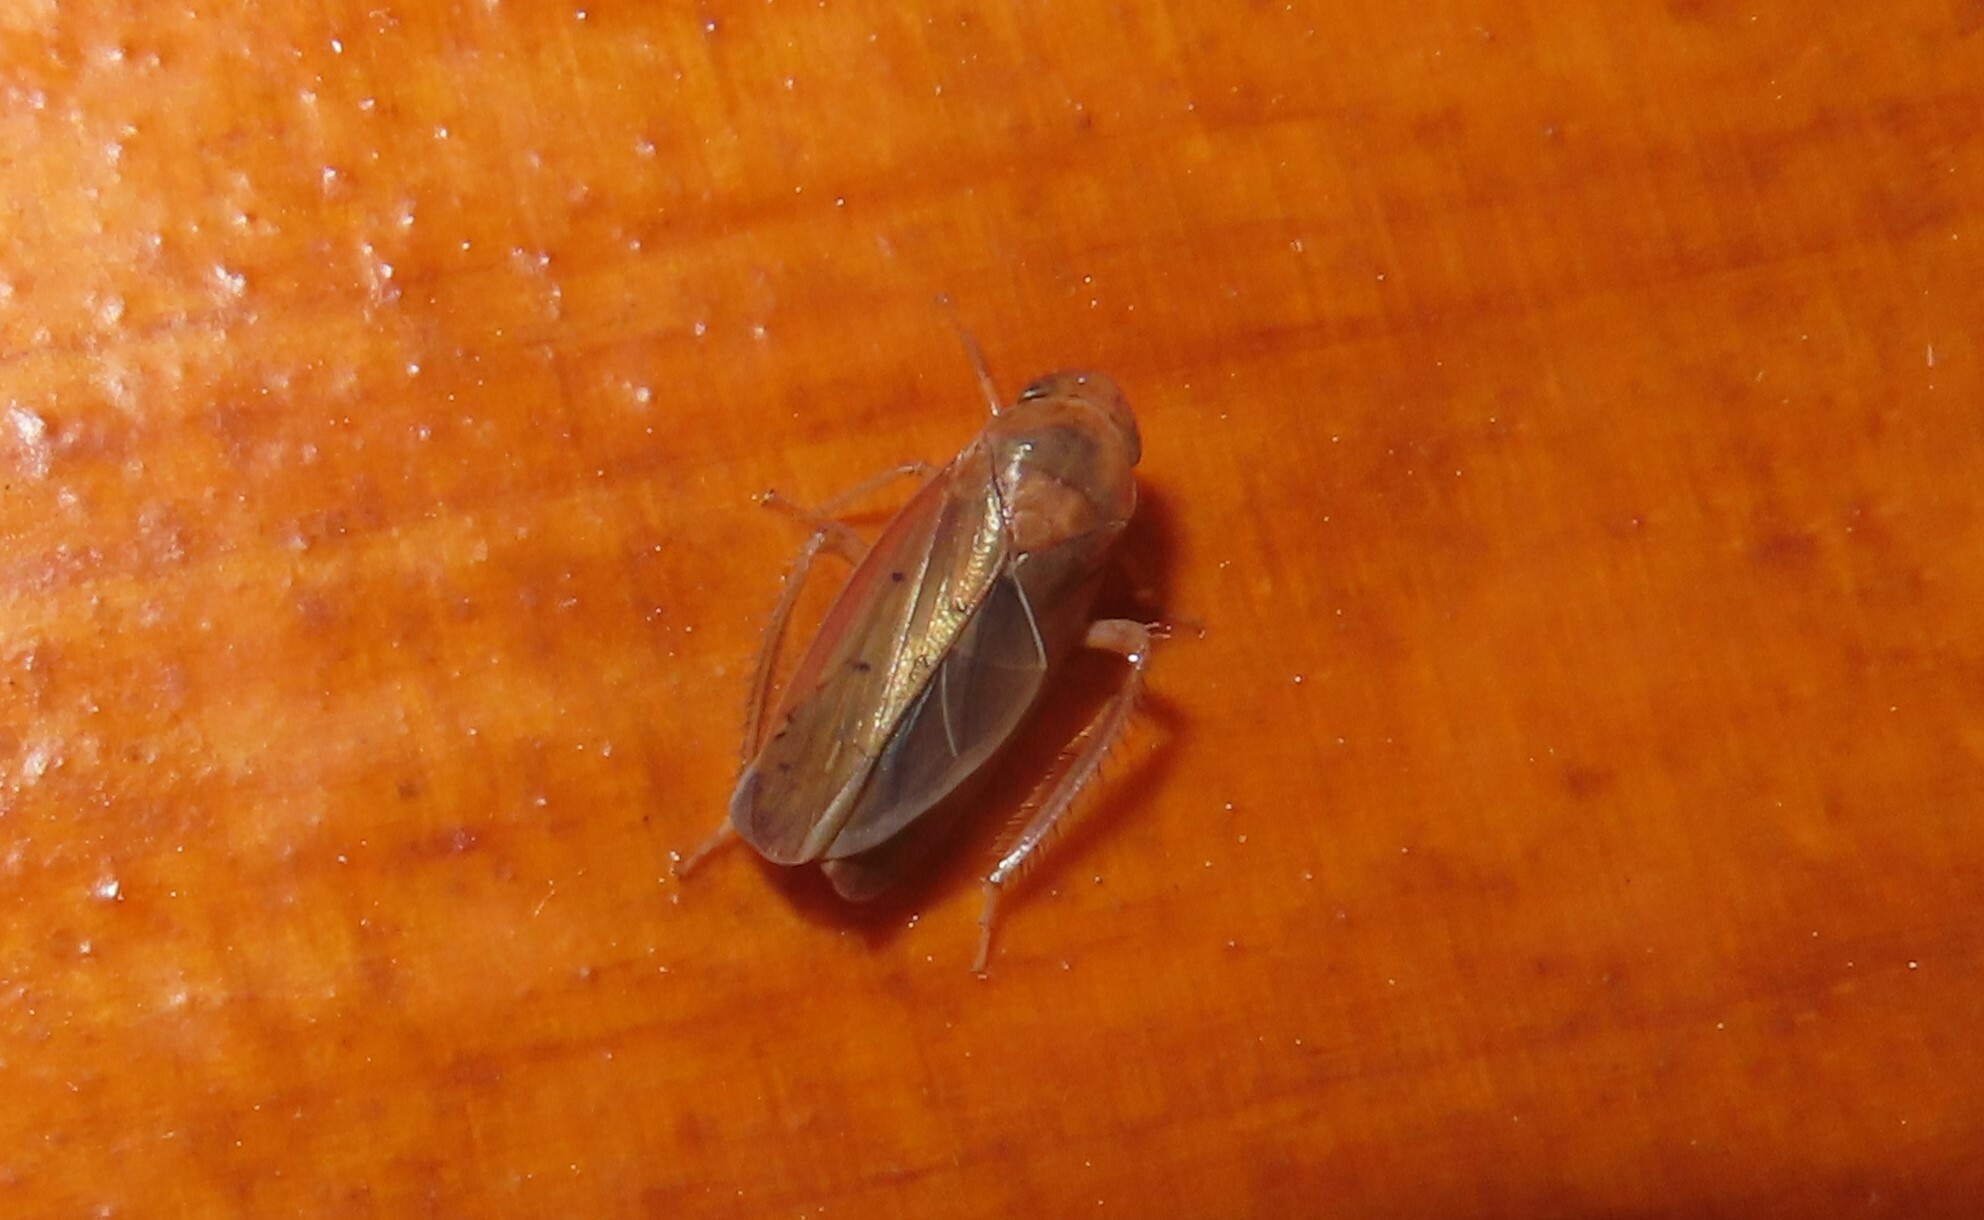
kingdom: Animalia
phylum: Arthropoda
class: Insecta
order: Hemiptera
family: Cicadellidae
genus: Ponana
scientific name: Ponana aenea
